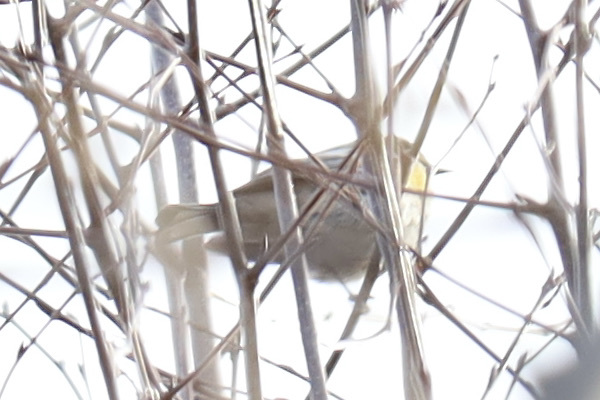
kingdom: Animalia
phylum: Chordata
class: Aves
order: Passeriformes
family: Parulidae
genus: Setophaga
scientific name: Setophaga coronata
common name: Myrtle warbler
